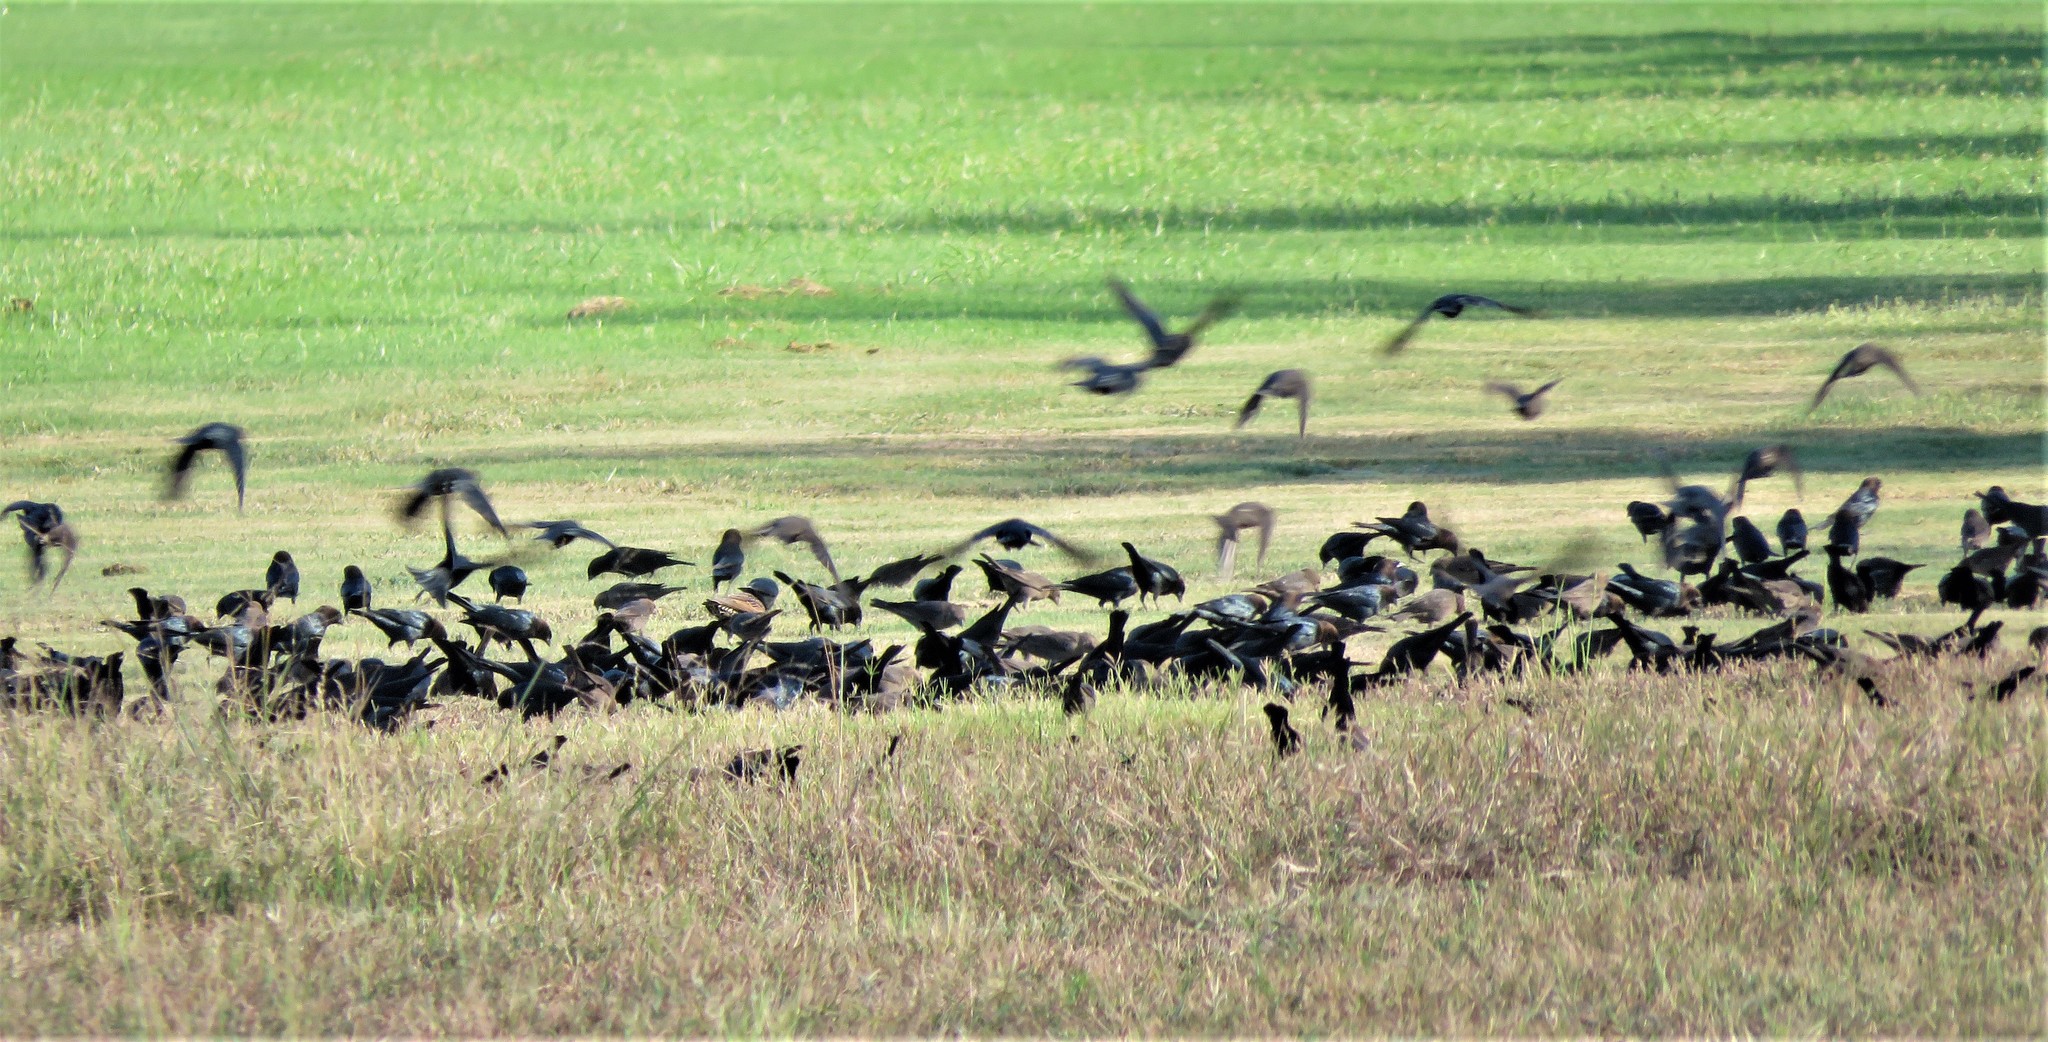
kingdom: Animalia
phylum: Chordata
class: Aves
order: Passeriformes
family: Icteridae
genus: Molothrus
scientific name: Molothrus ater
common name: Brown-headed cowbird
